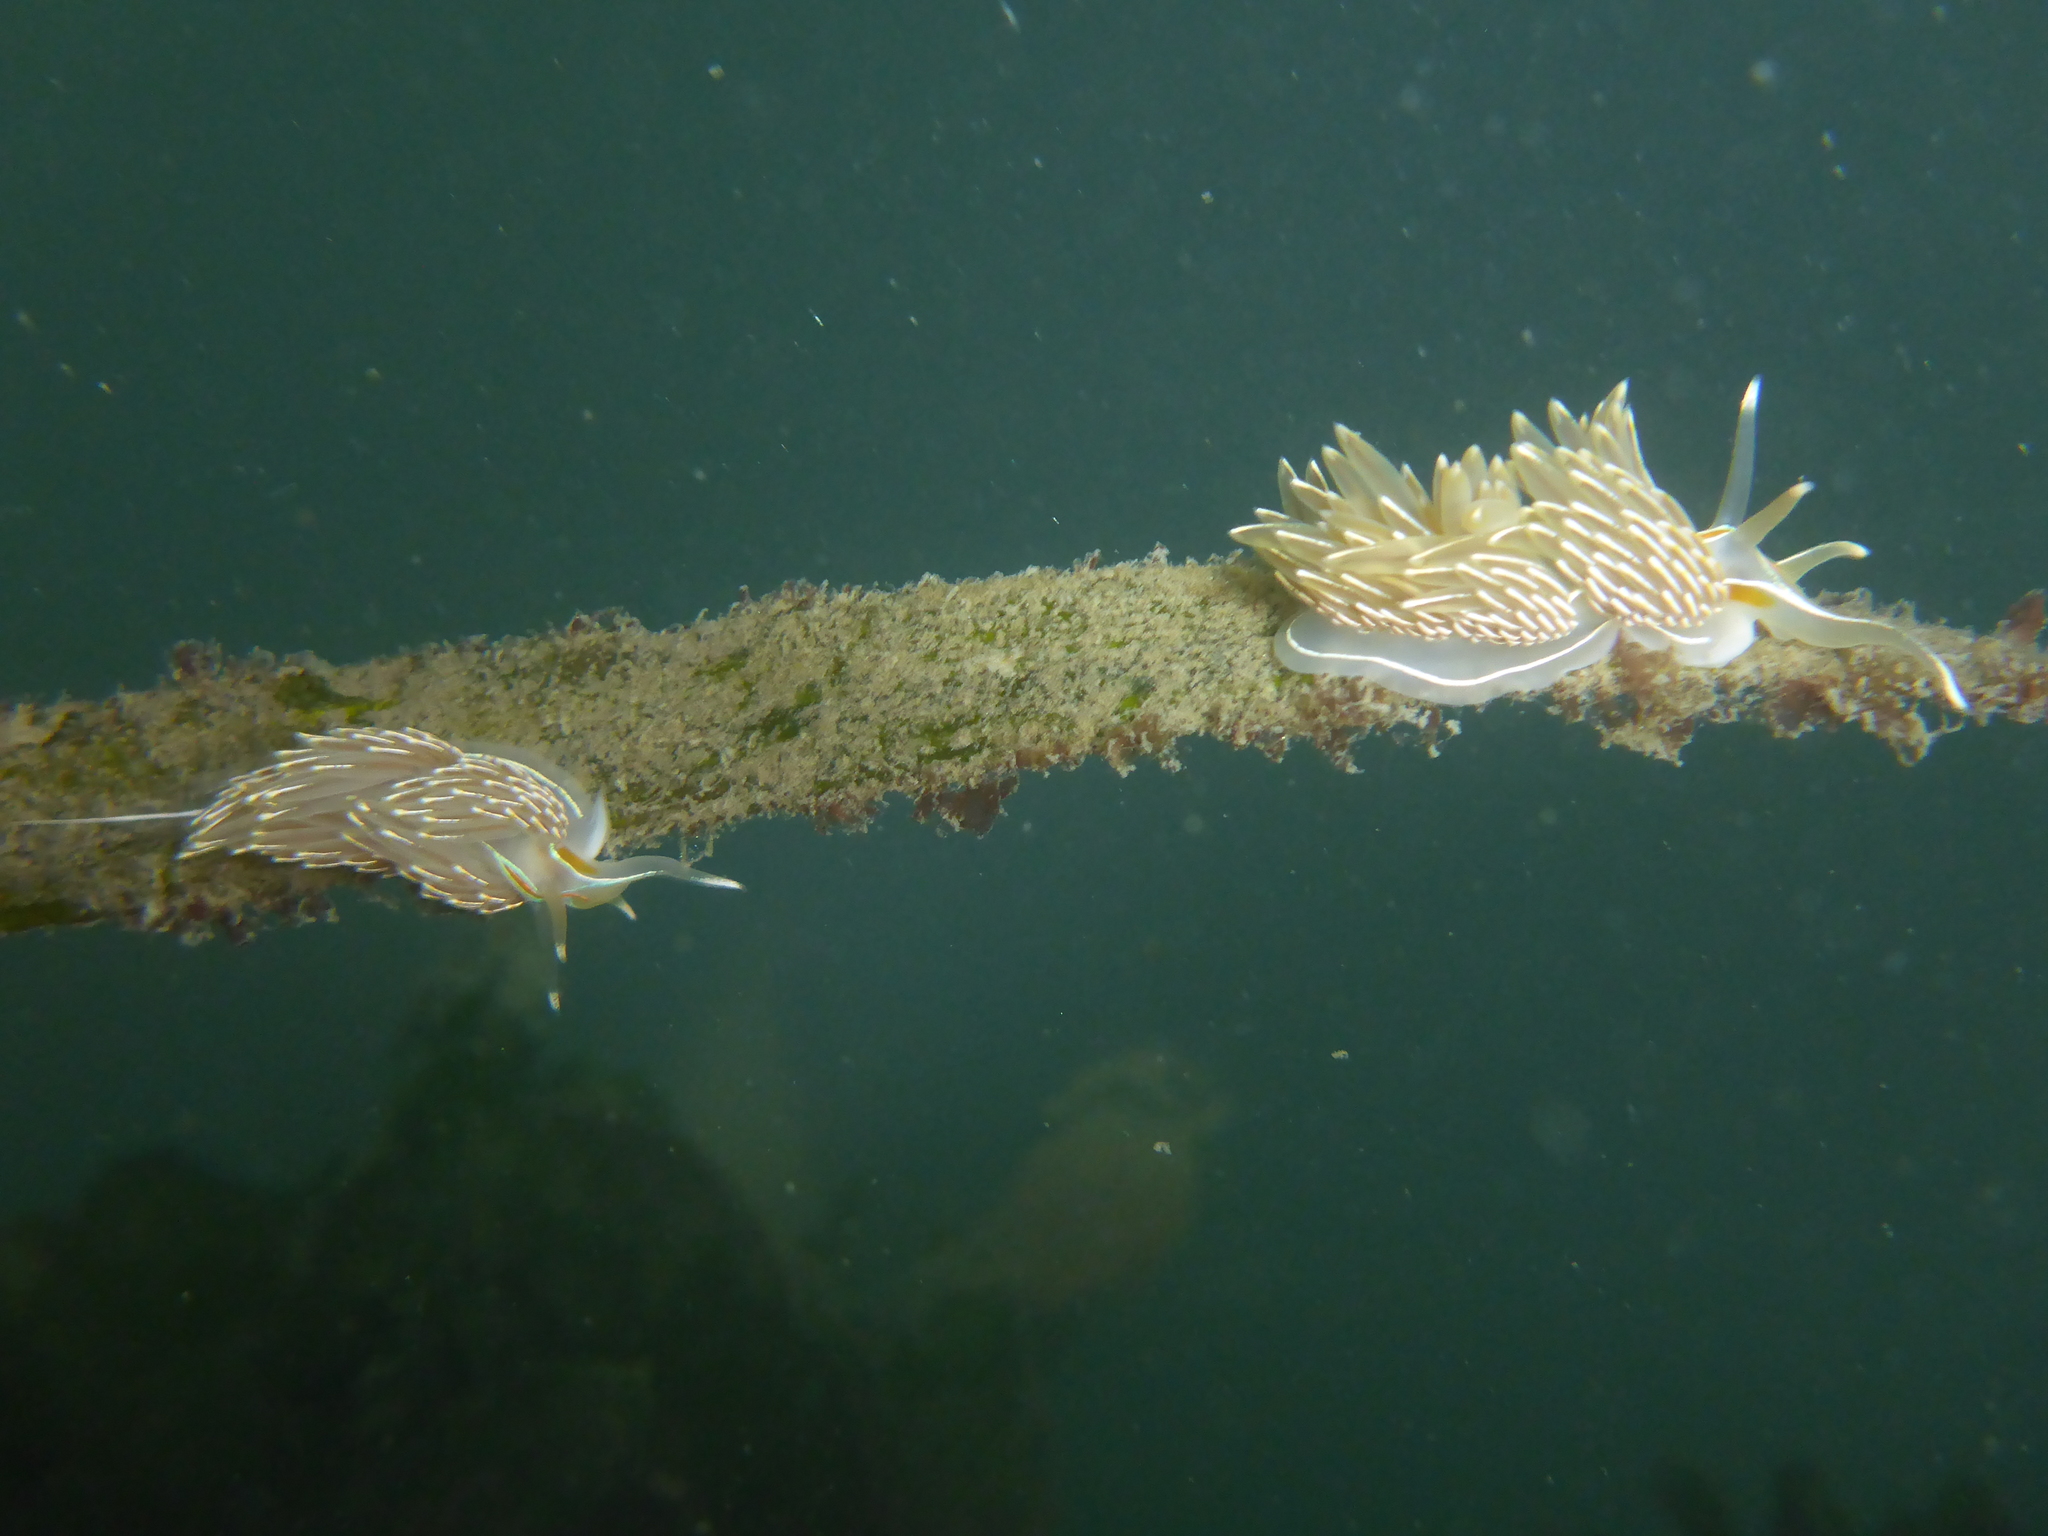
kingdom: Animalia
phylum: Mollusca
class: Gastropoda
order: Nudibranchia
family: Myrrhinidae
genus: Hermissenda
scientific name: Hermissenda crassicornis
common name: Hermissenda
